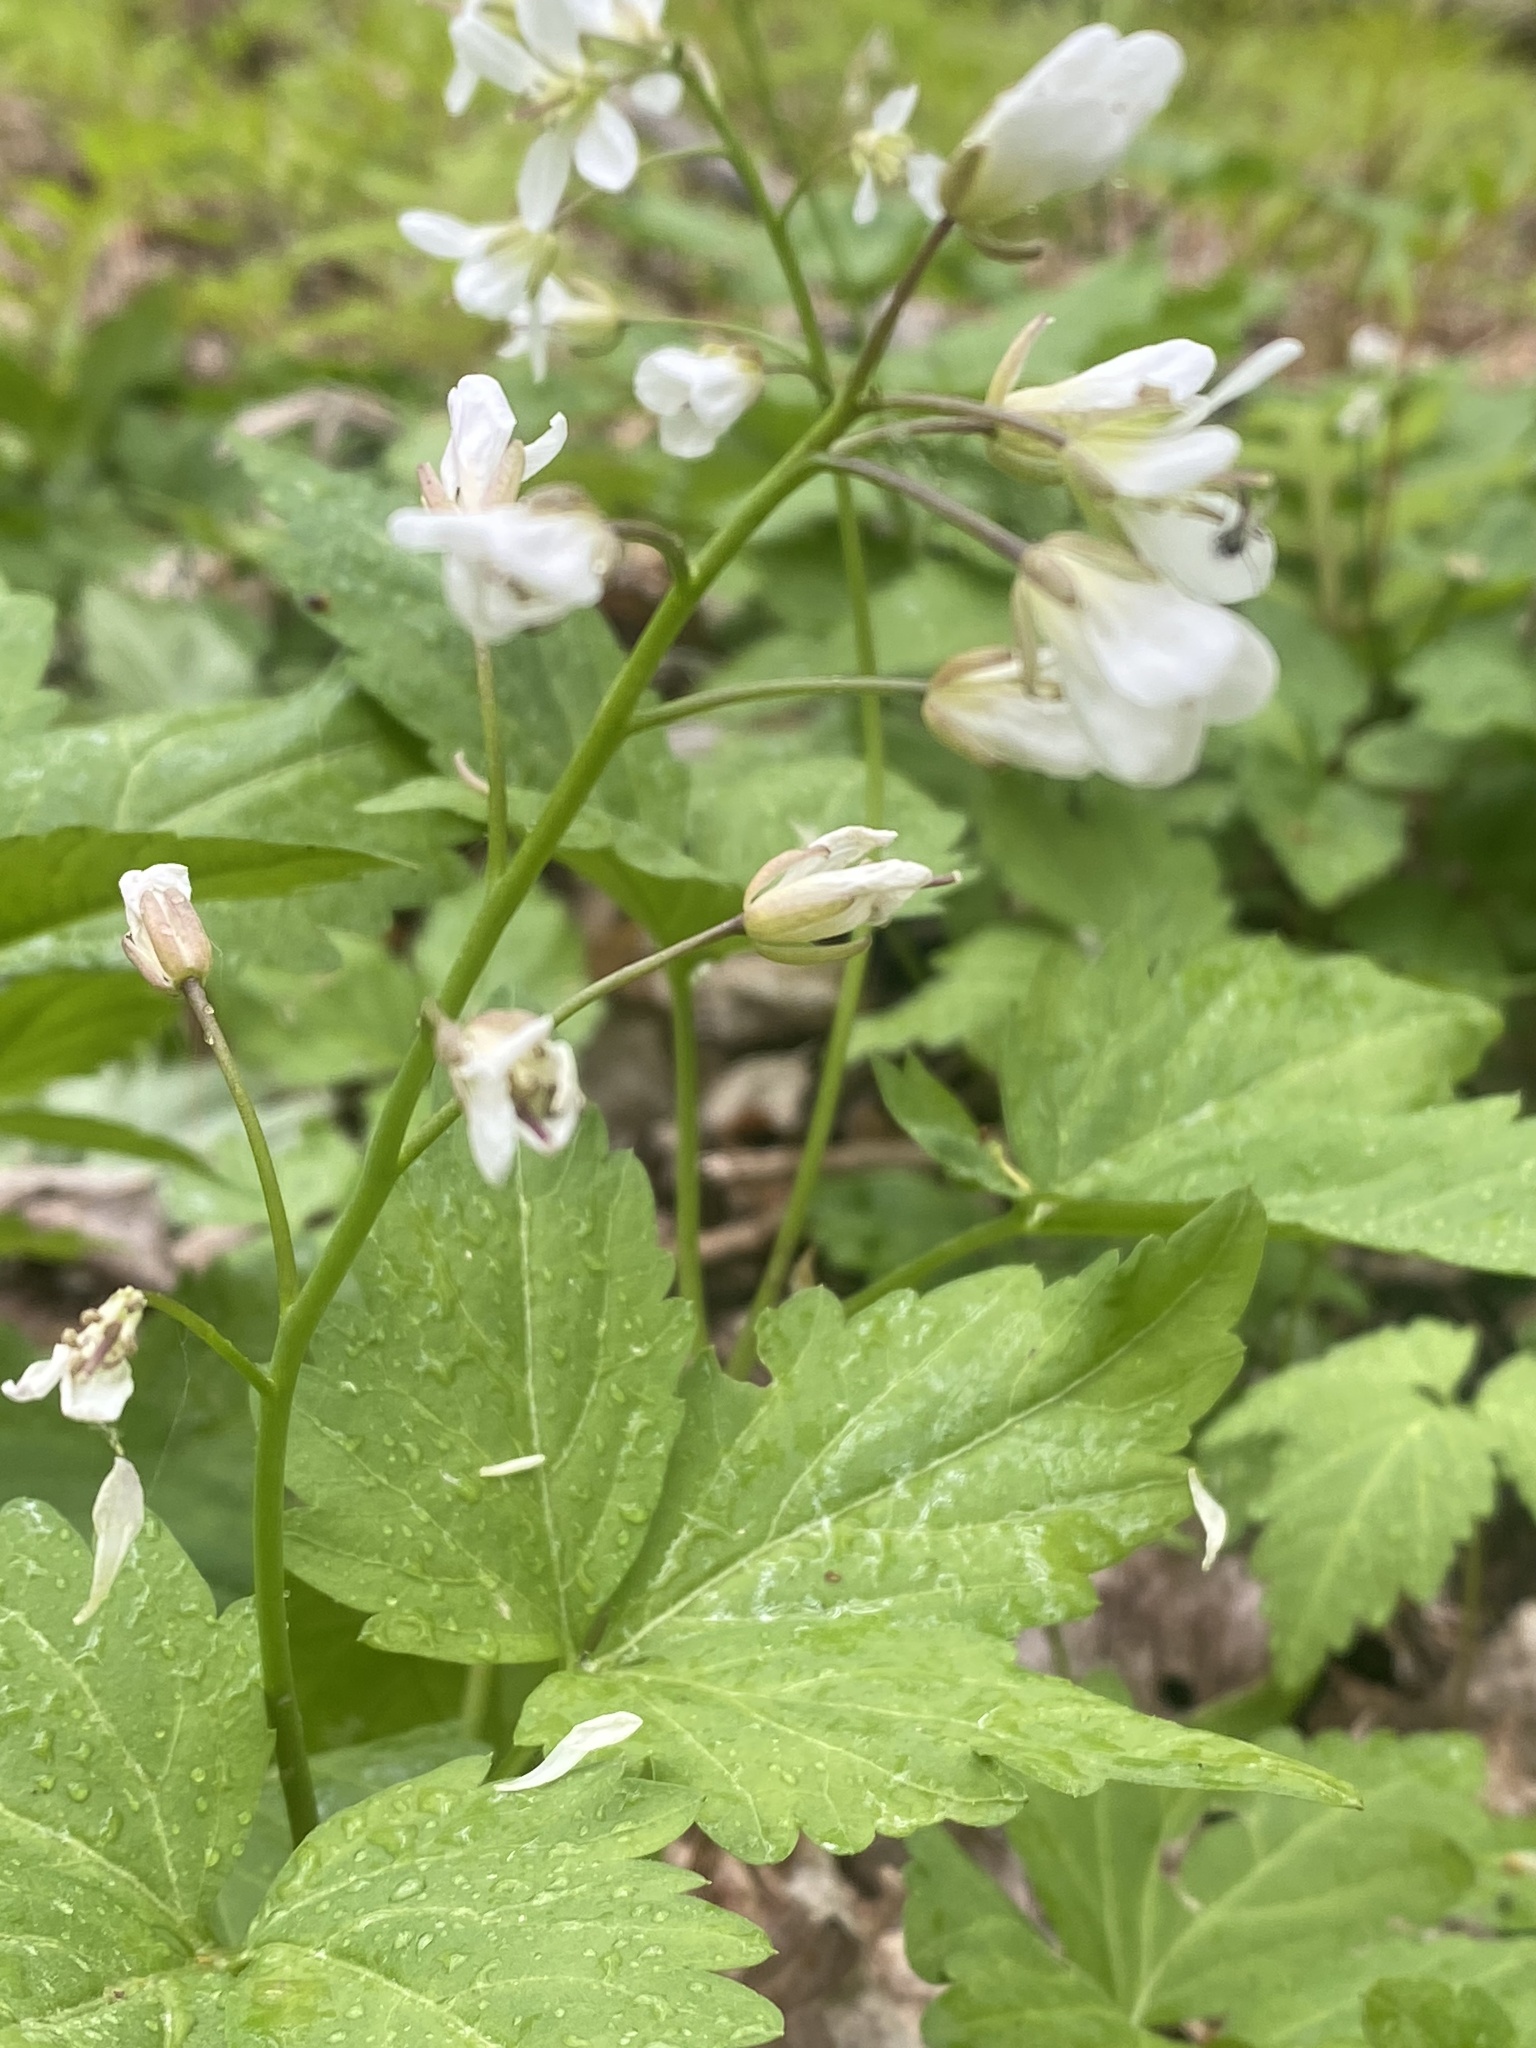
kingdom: Plantae
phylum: Tracheophyta
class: Magnoliopsida
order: Brassicales
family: Brassicaceae
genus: Cardamine
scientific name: Cardamine diphylla
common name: Broad-leaved toothwort
